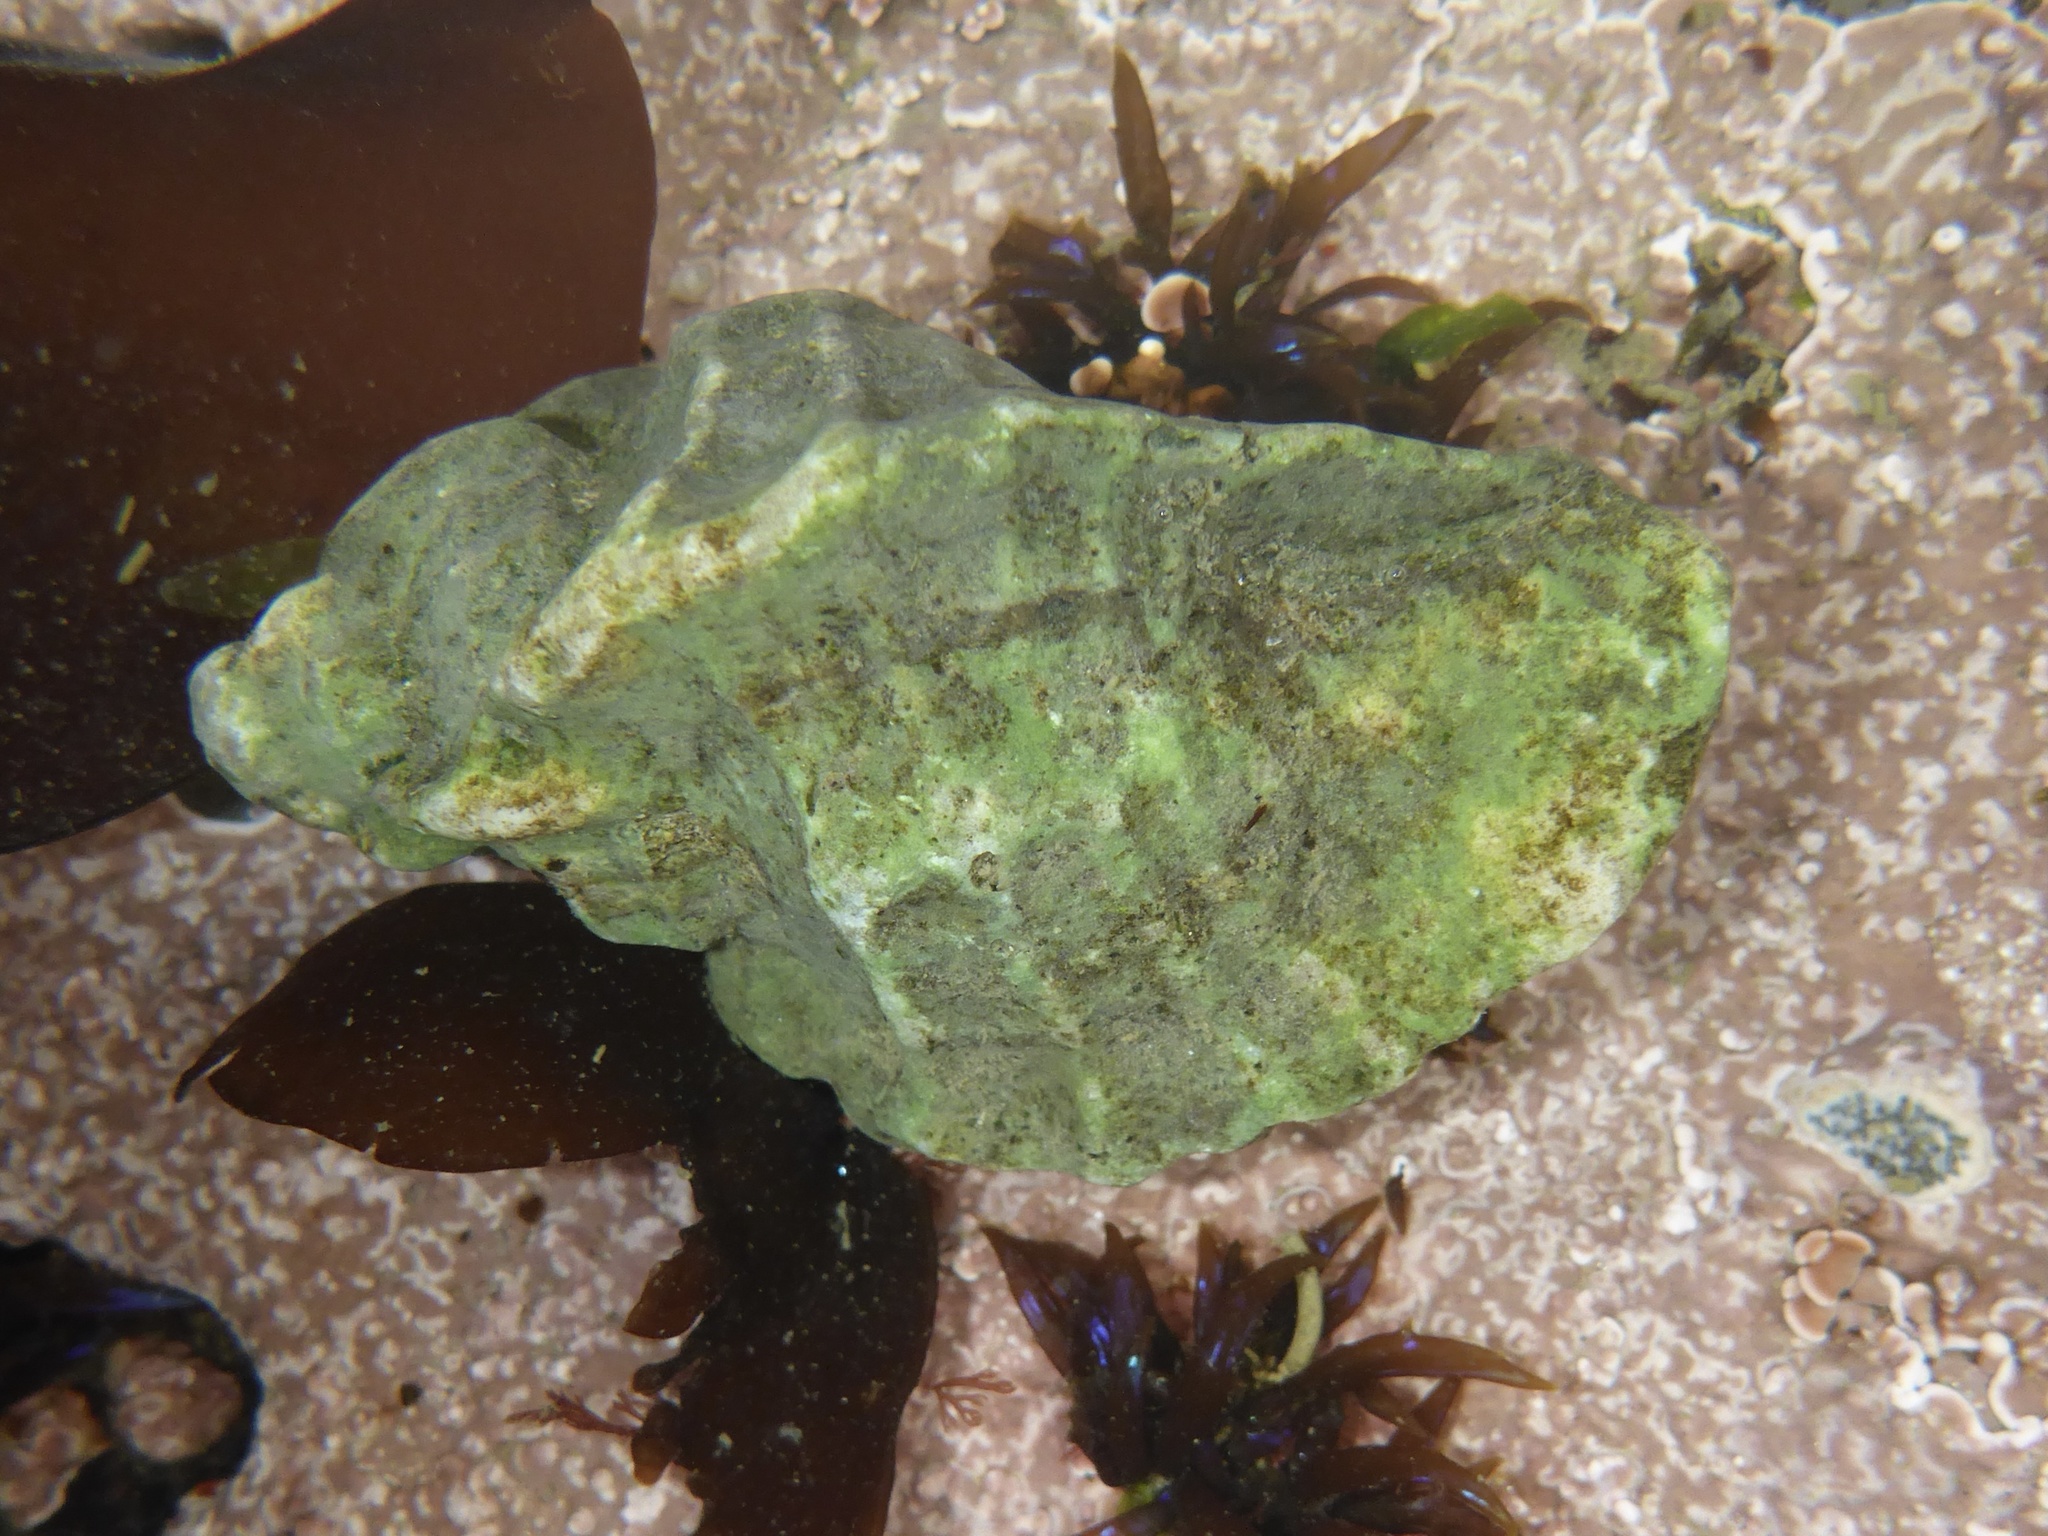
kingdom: Animalia
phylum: Mollusca
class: Gastropoda
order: Neogastropoda
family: Muricidae
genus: Ceratostoma
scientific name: Ceratostoma foliatum
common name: Foliate thorn purpura
